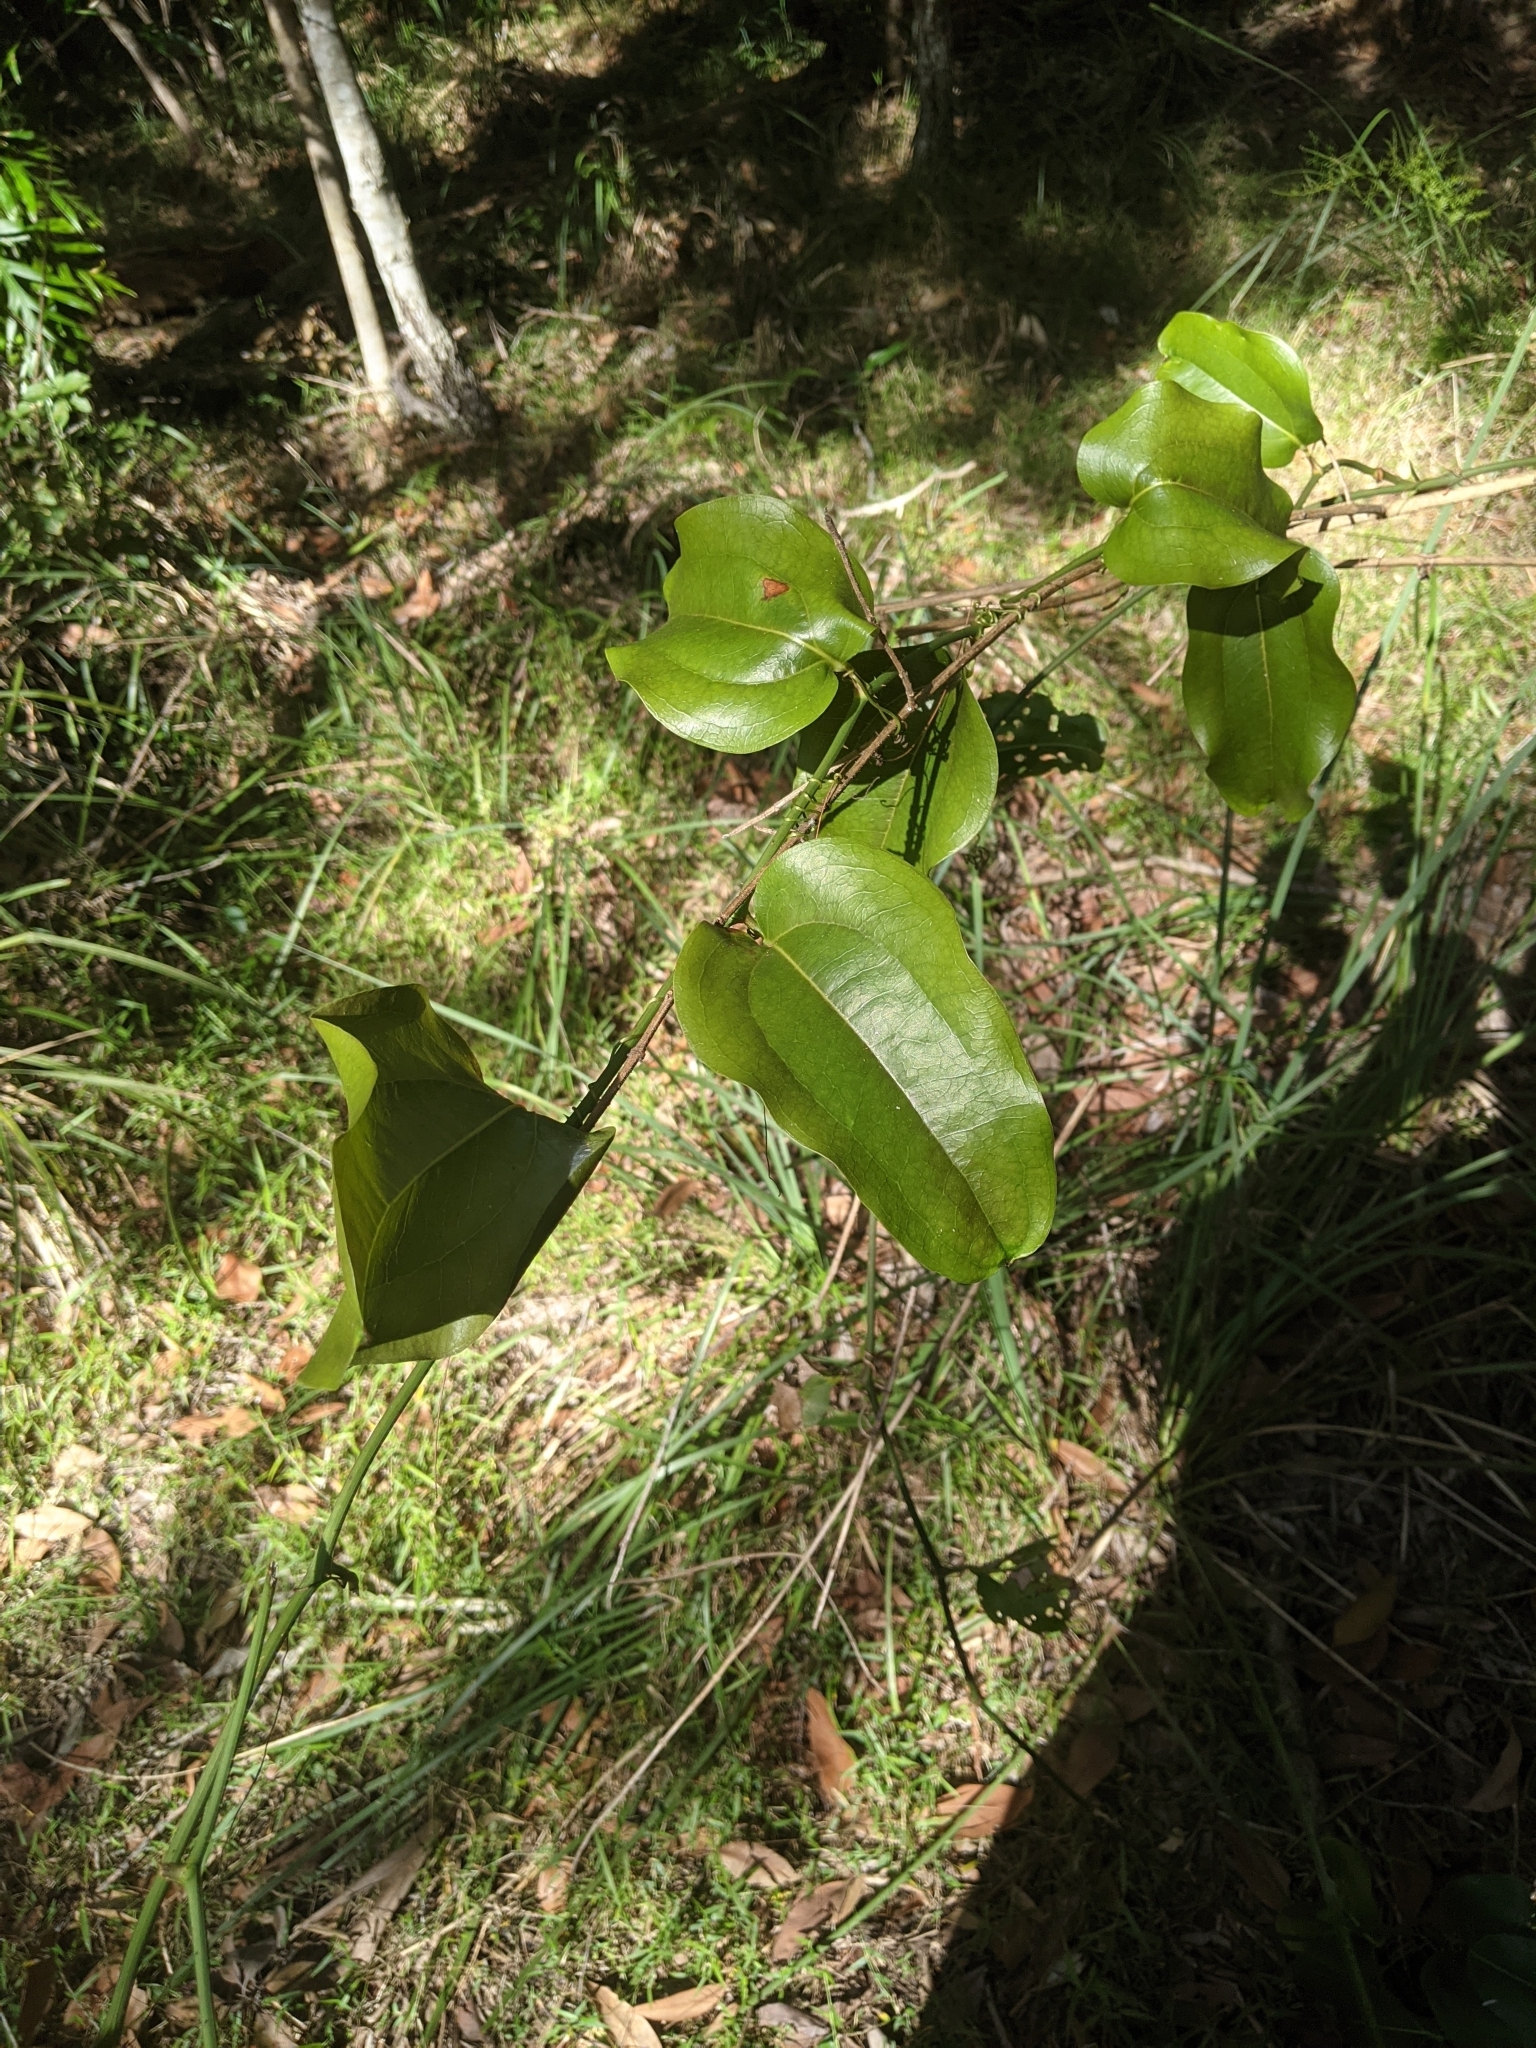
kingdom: Plantae
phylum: Tracheophyta
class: Liliopsida
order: Liliales
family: Smilacaceae
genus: Smilax
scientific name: Smilax australis
